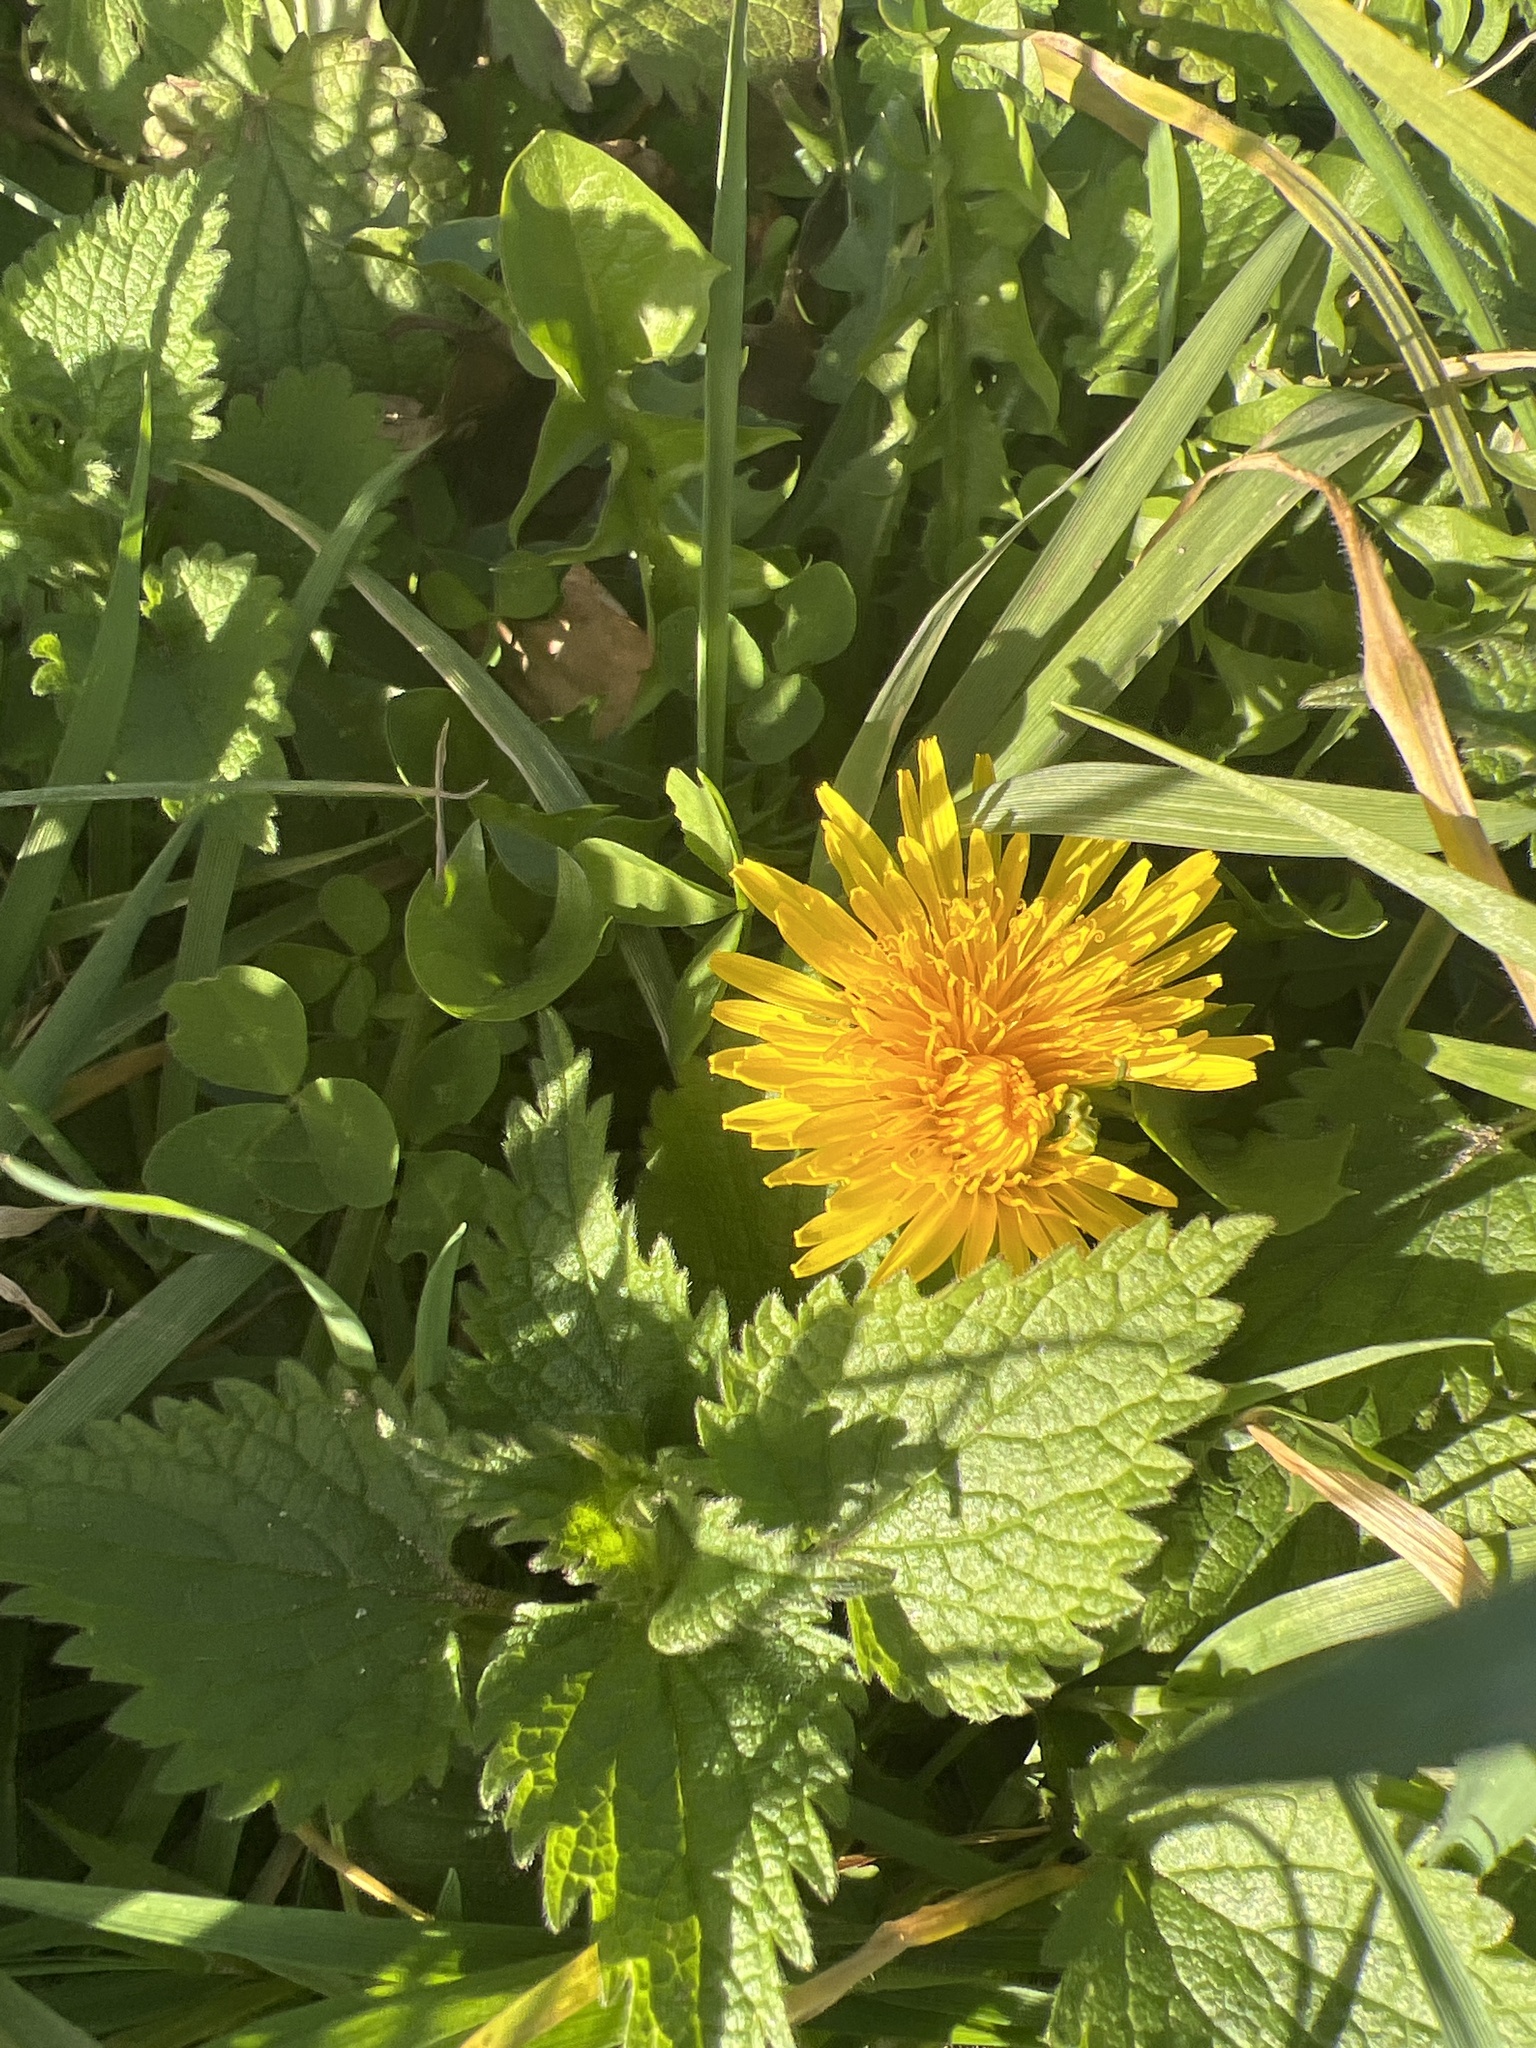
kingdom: Plantae
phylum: Tracheophyta
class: Magnoliopsida
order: Asterales
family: Asteraceae
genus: Taraxacum
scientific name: Taraxacum officinale
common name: Common dandelion
